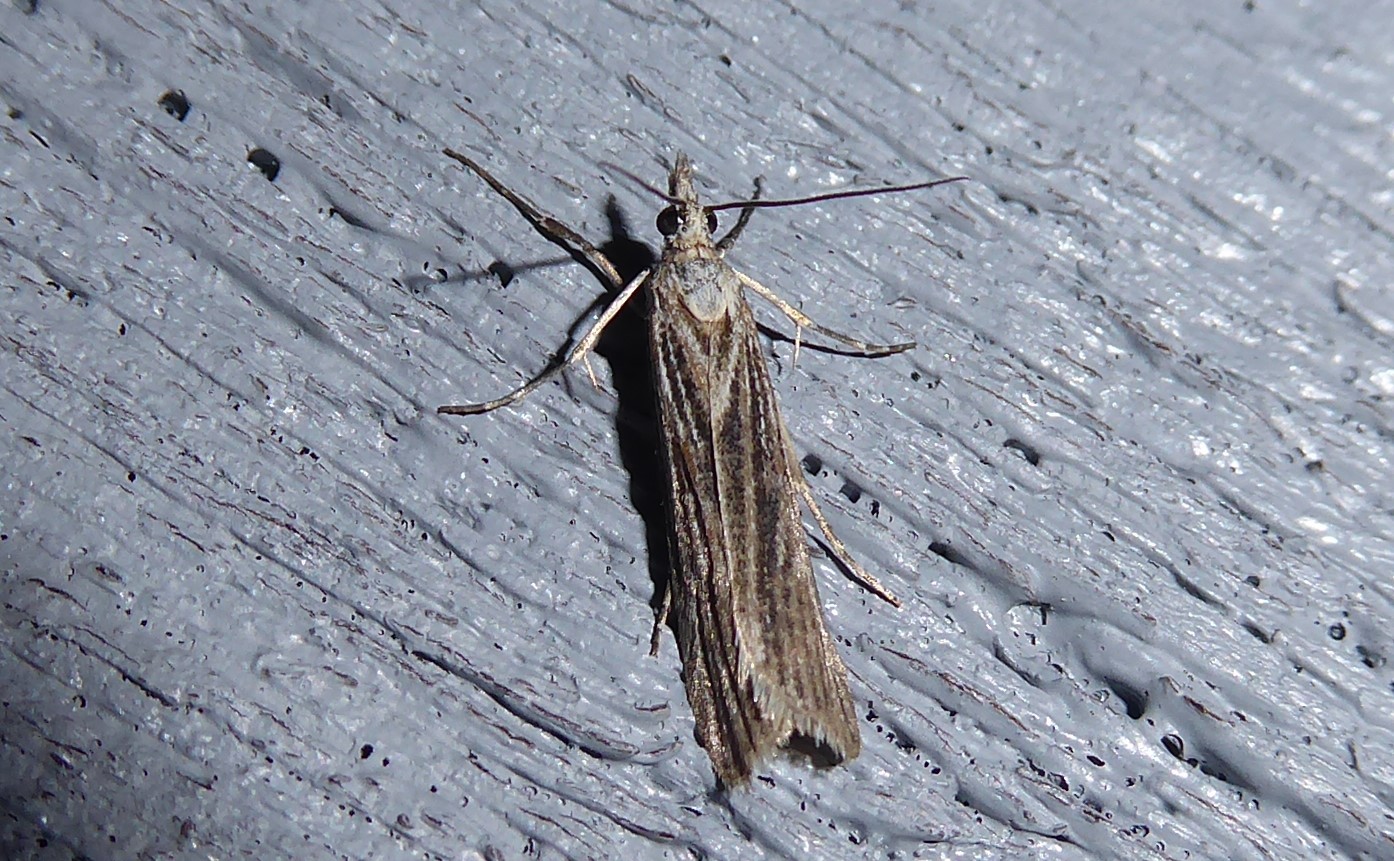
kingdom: Animalia
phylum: Arthropoda
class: Insecta
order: Lepidoptera
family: Crambidae
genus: Eudonia
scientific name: Eudonia atmogramma
